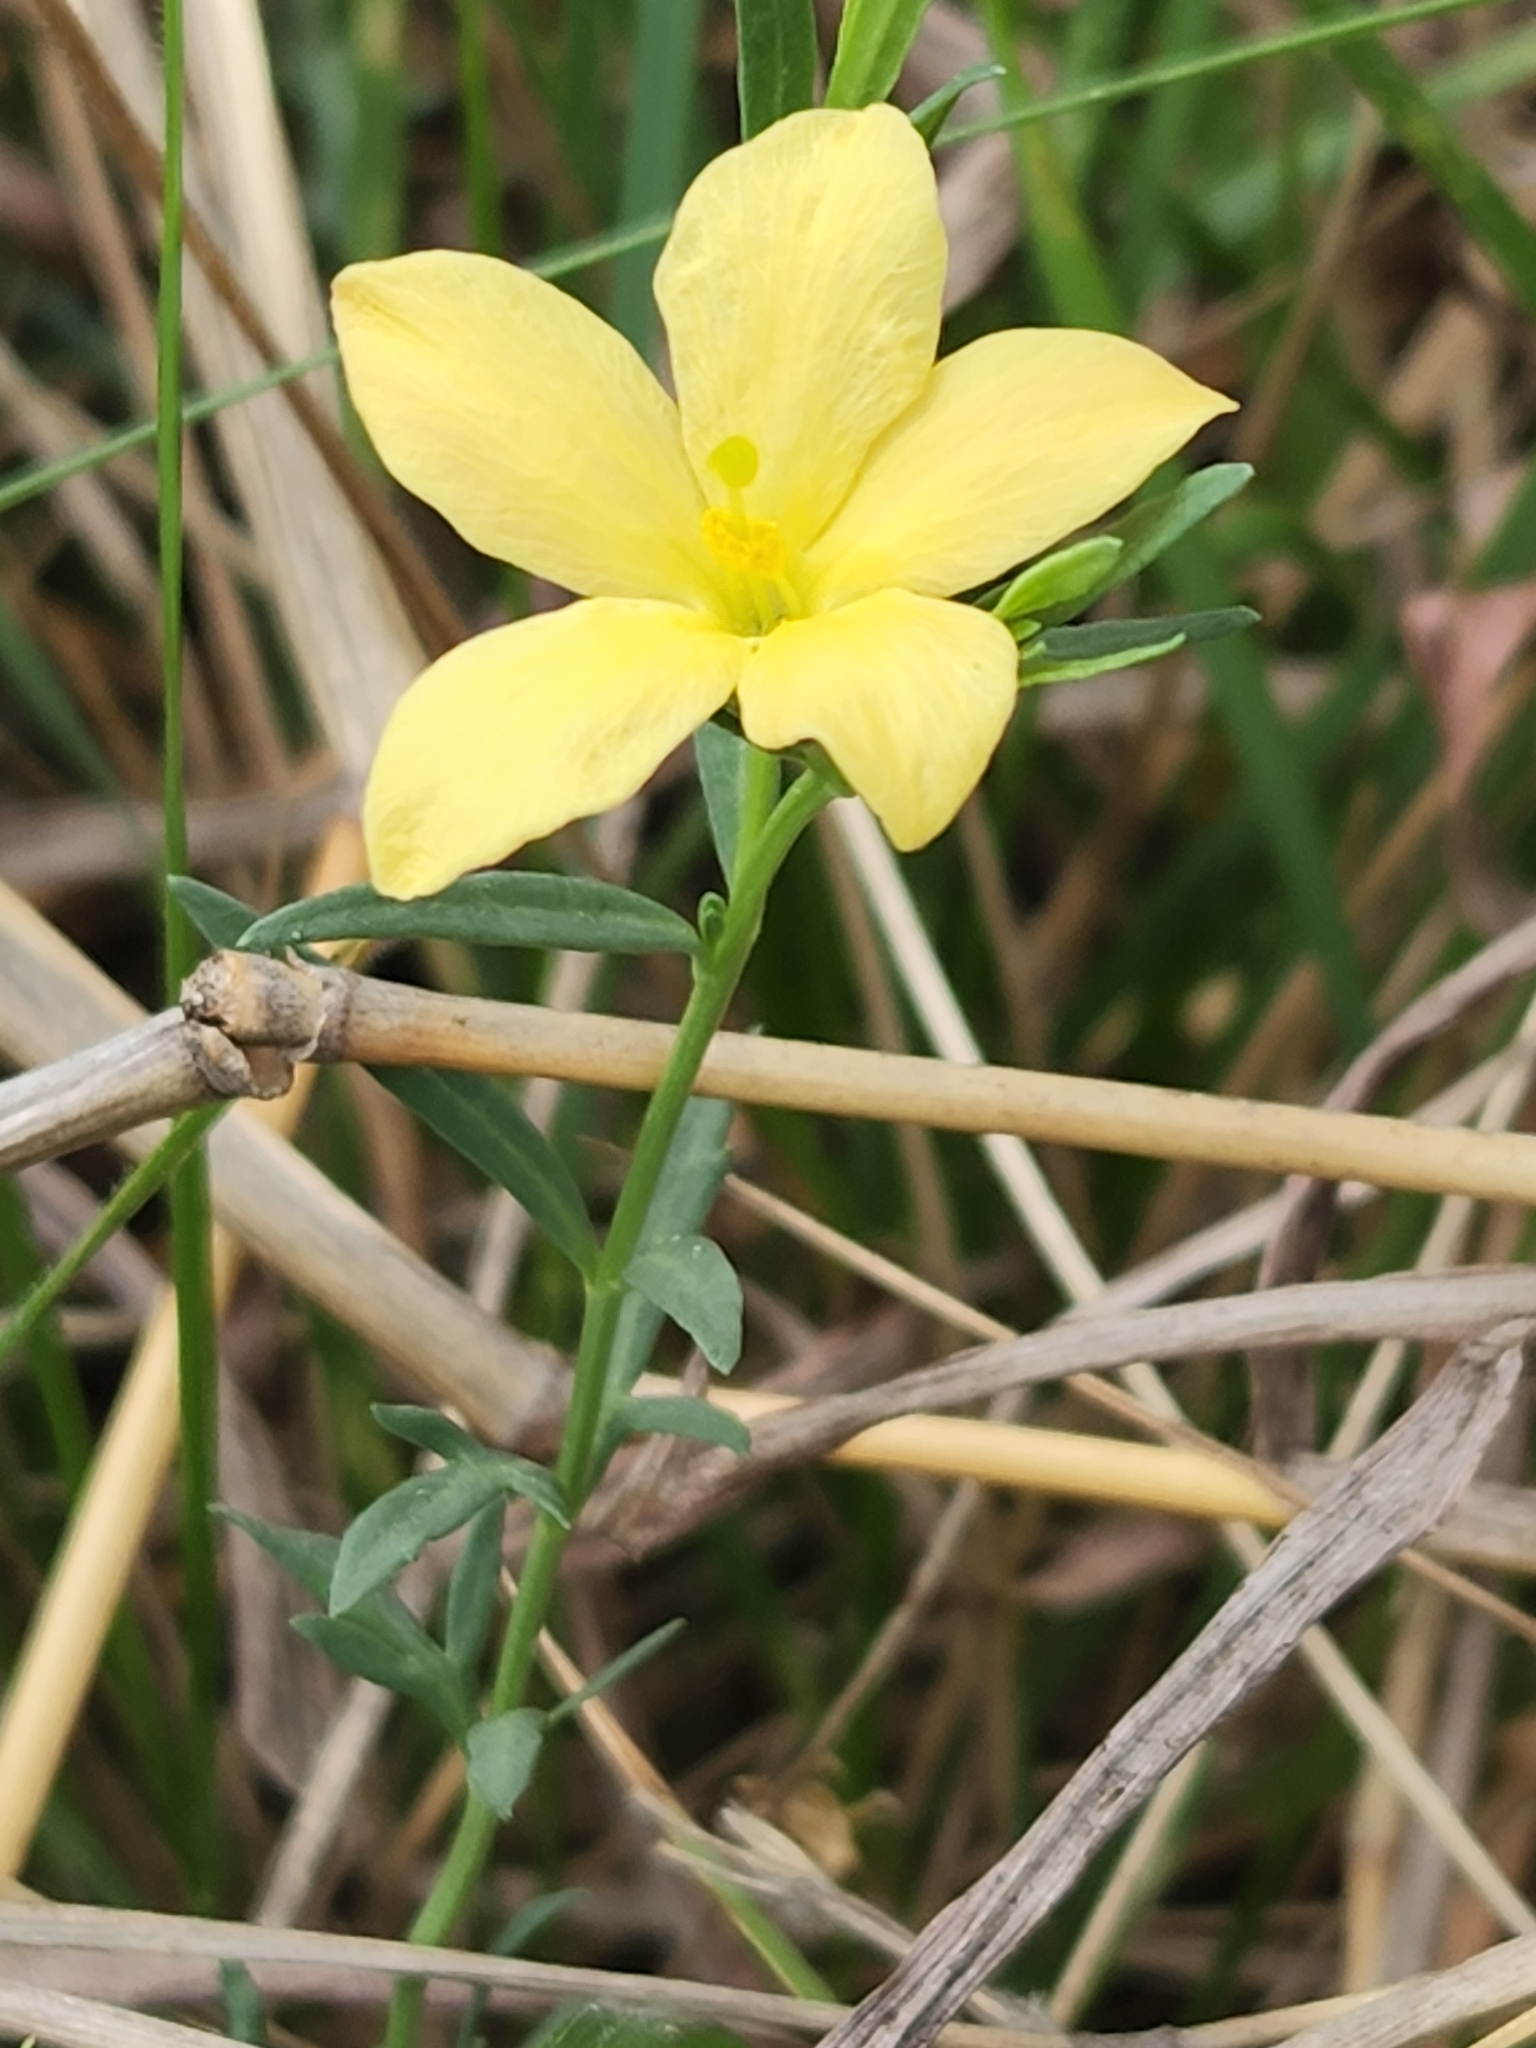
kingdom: Plantae
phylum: Tracheophyta
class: Magnoliopsida
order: Lamiales
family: Oleaceae
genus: Menodora
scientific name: Menodora heterophylla
